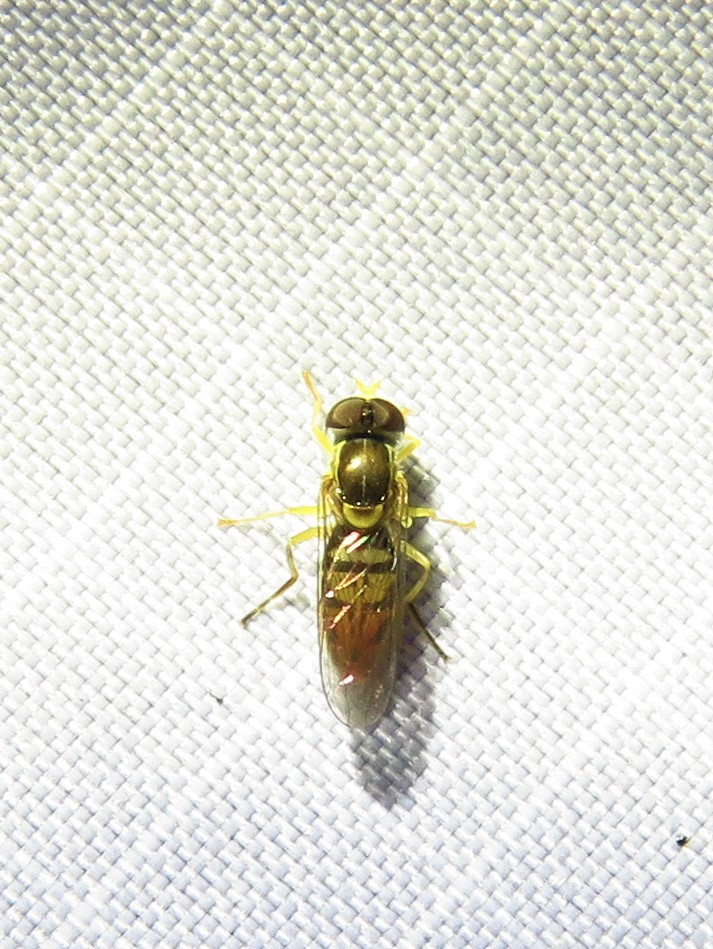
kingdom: Animalia
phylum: Arthropoda
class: Insecta
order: Diptera
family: Syrphidae
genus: Toxomerus
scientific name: Toxomerus marginatus
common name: Syrphid fly
